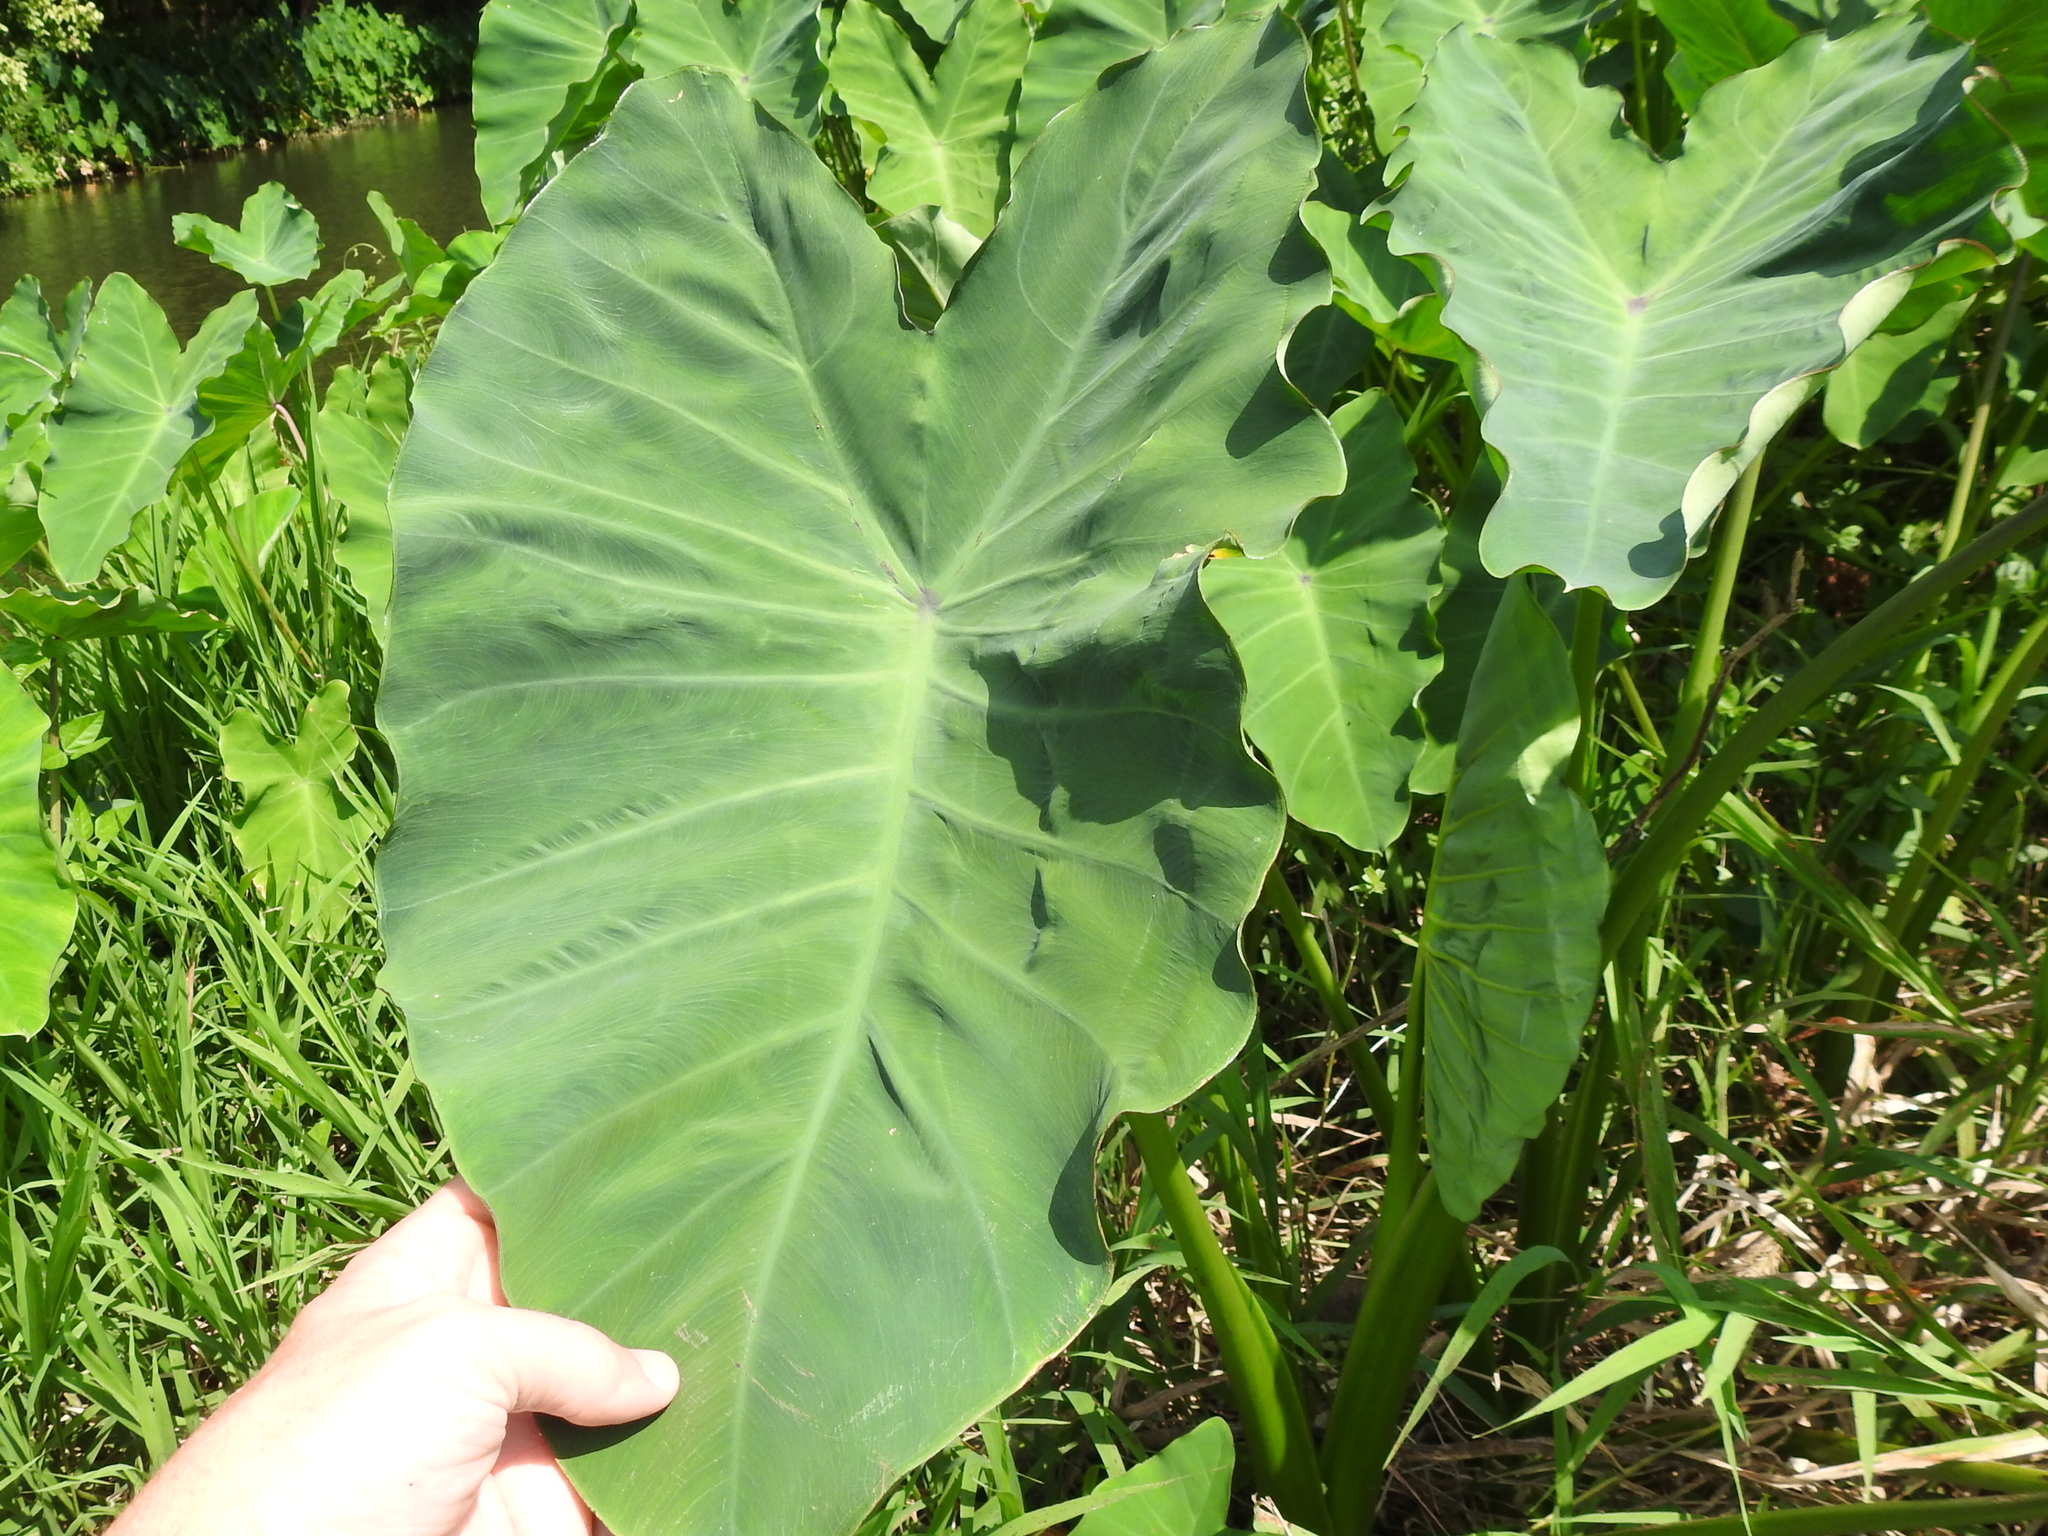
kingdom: Plantae
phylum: Tracheophyta
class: Liliopsida
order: Alismatales
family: Araceae
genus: Colocasia
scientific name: Colocasia esculenta
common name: Taro
